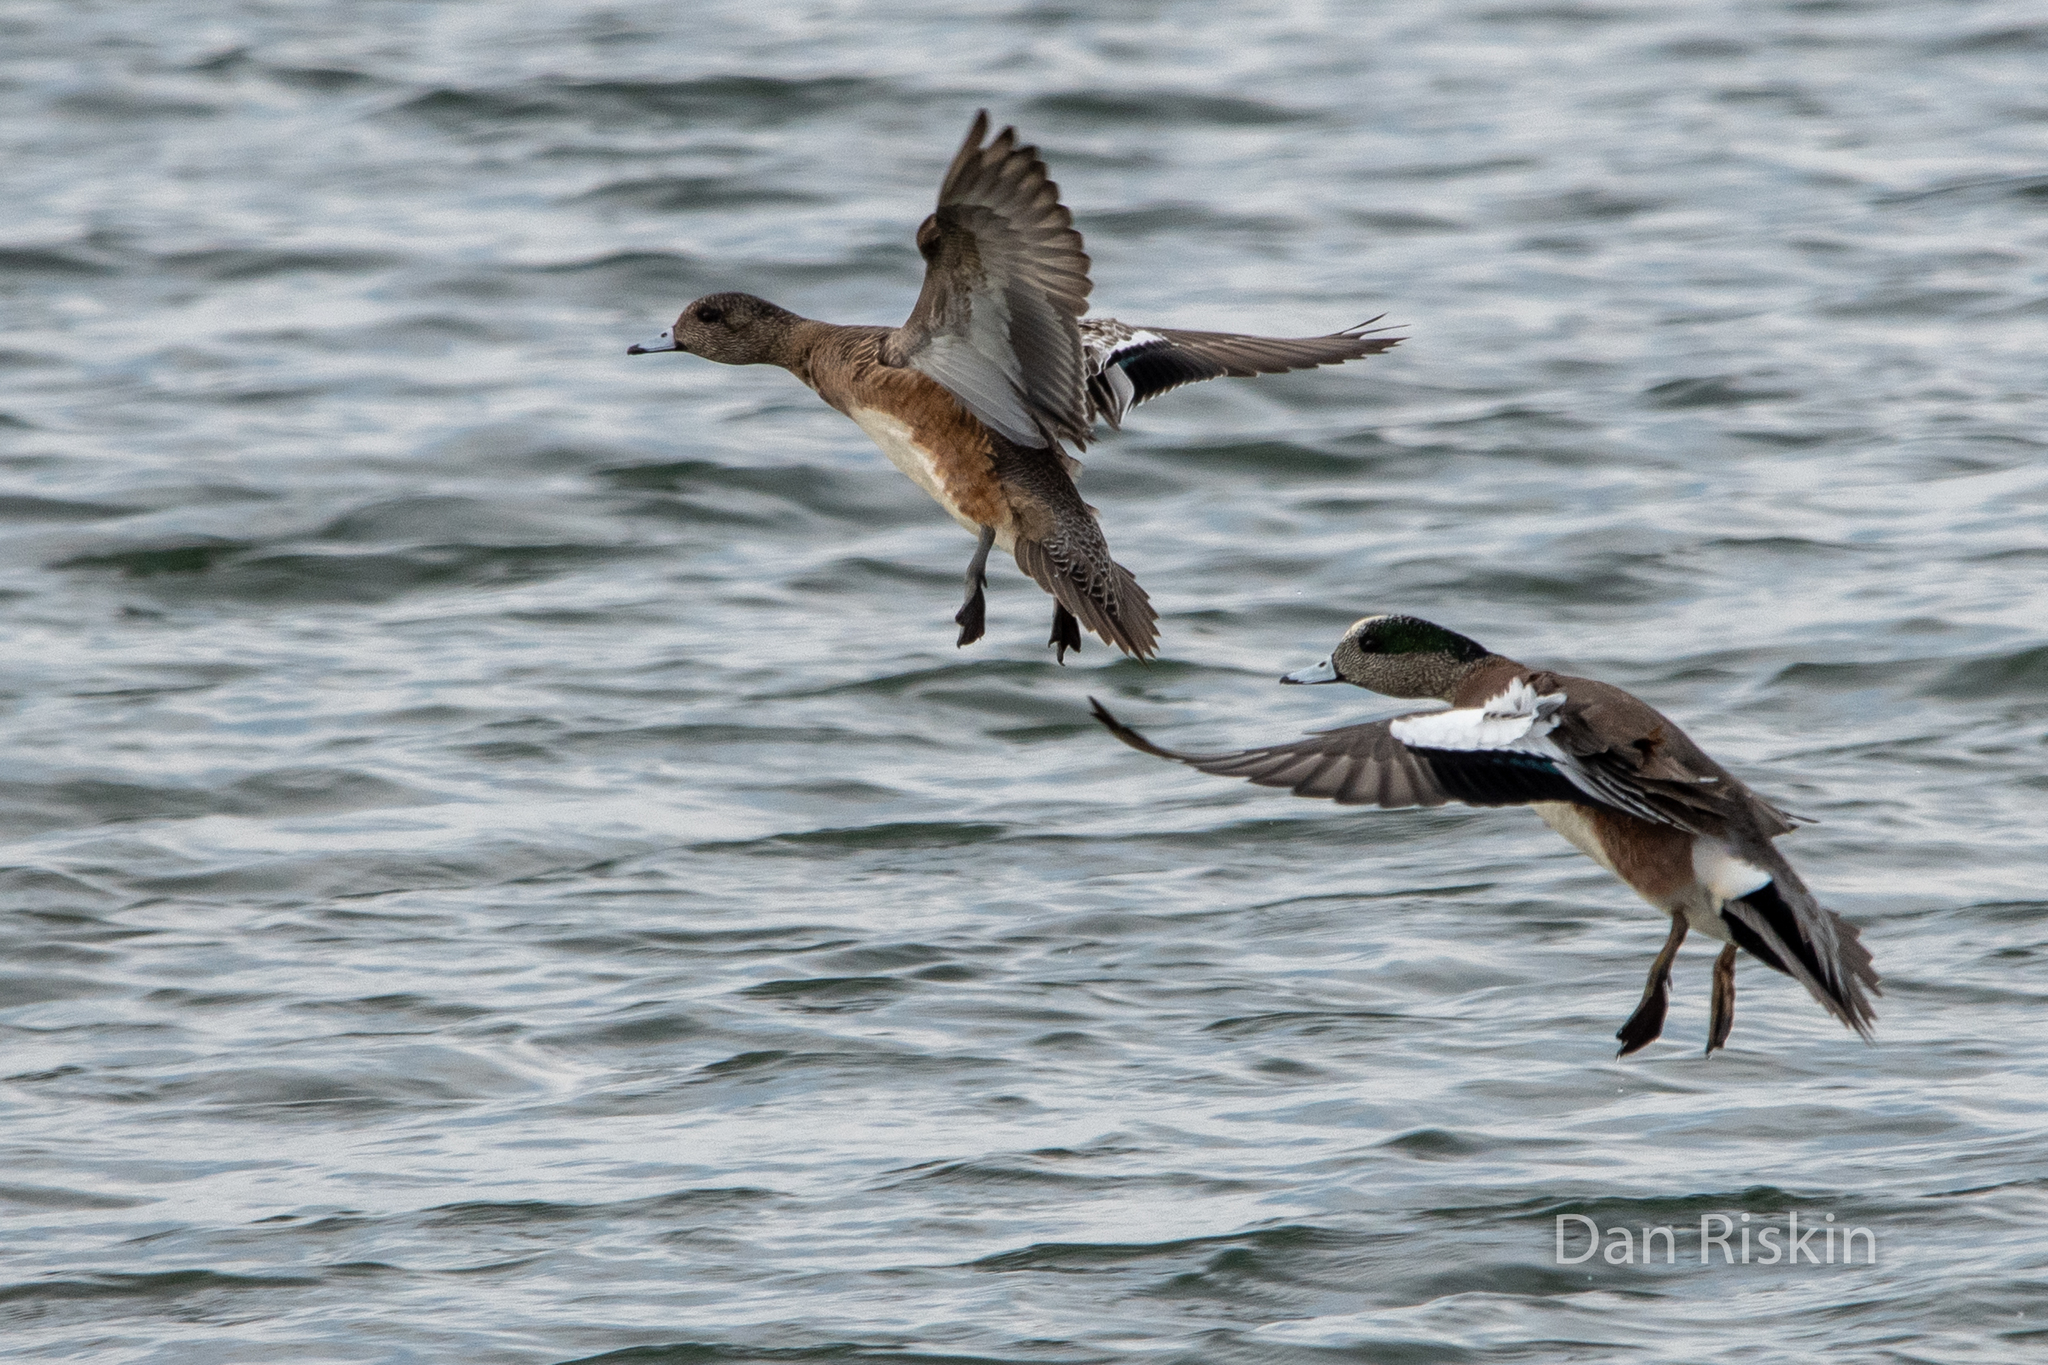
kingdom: Animalia
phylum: Chordata
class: Aves
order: Anseriformes
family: Anatidae
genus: Mareca
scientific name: Mareca americana
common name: American wigeon
